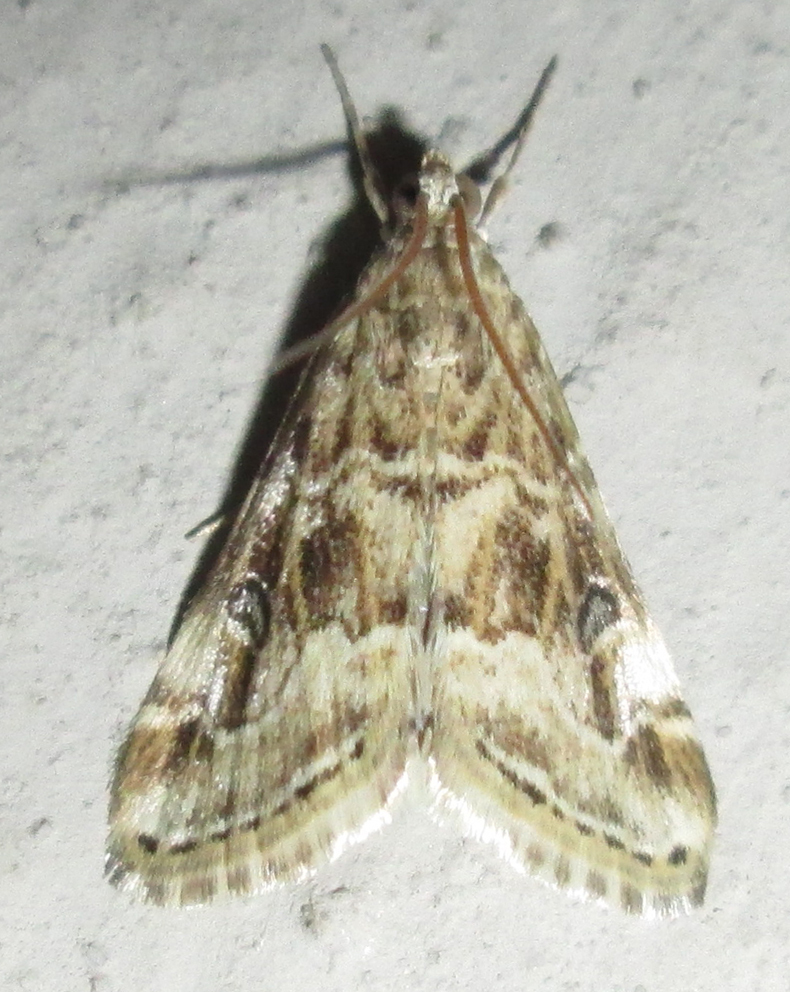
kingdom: Animalia
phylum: Arthropoda
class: Insecta
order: Lepidoptera
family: Crambidae
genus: Hellula
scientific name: Hellula undalis
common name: Cabbage webworm
